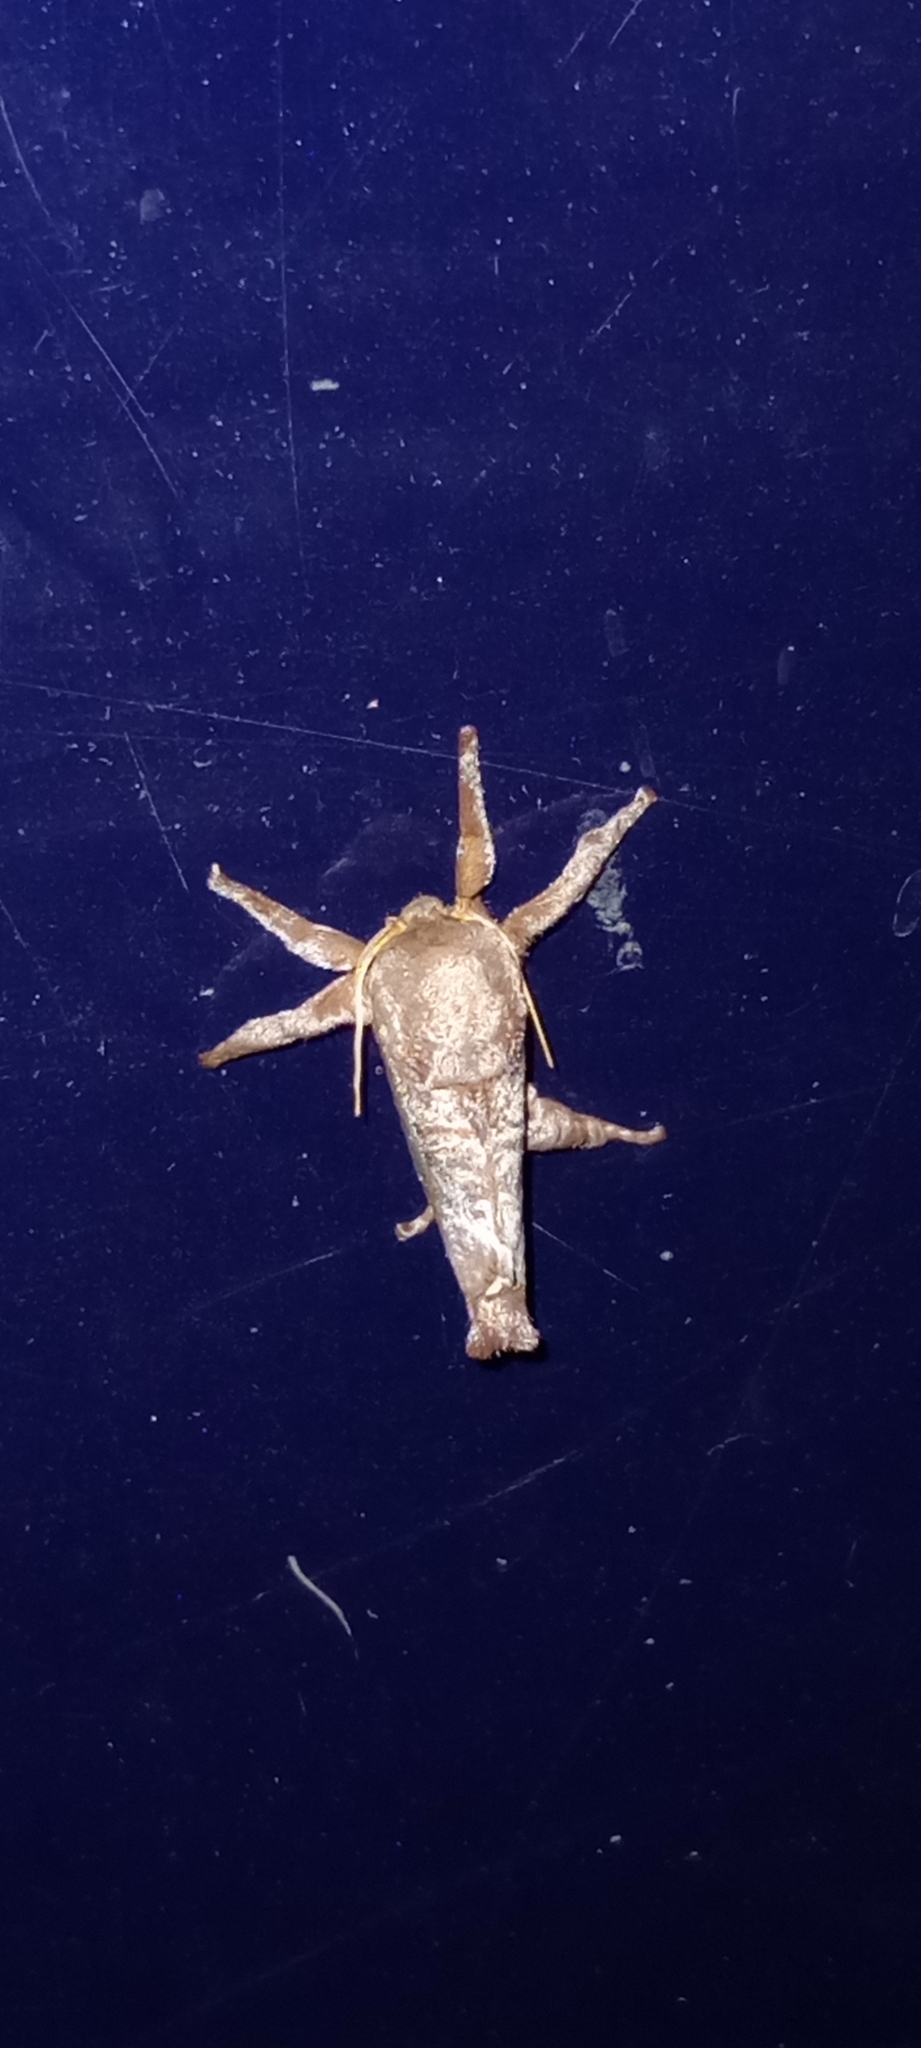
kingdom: Animalia
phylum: Arthropoda
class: Insecta
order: Lepidoptera
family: Limacodidae
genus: Acharia
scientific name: Acharia
